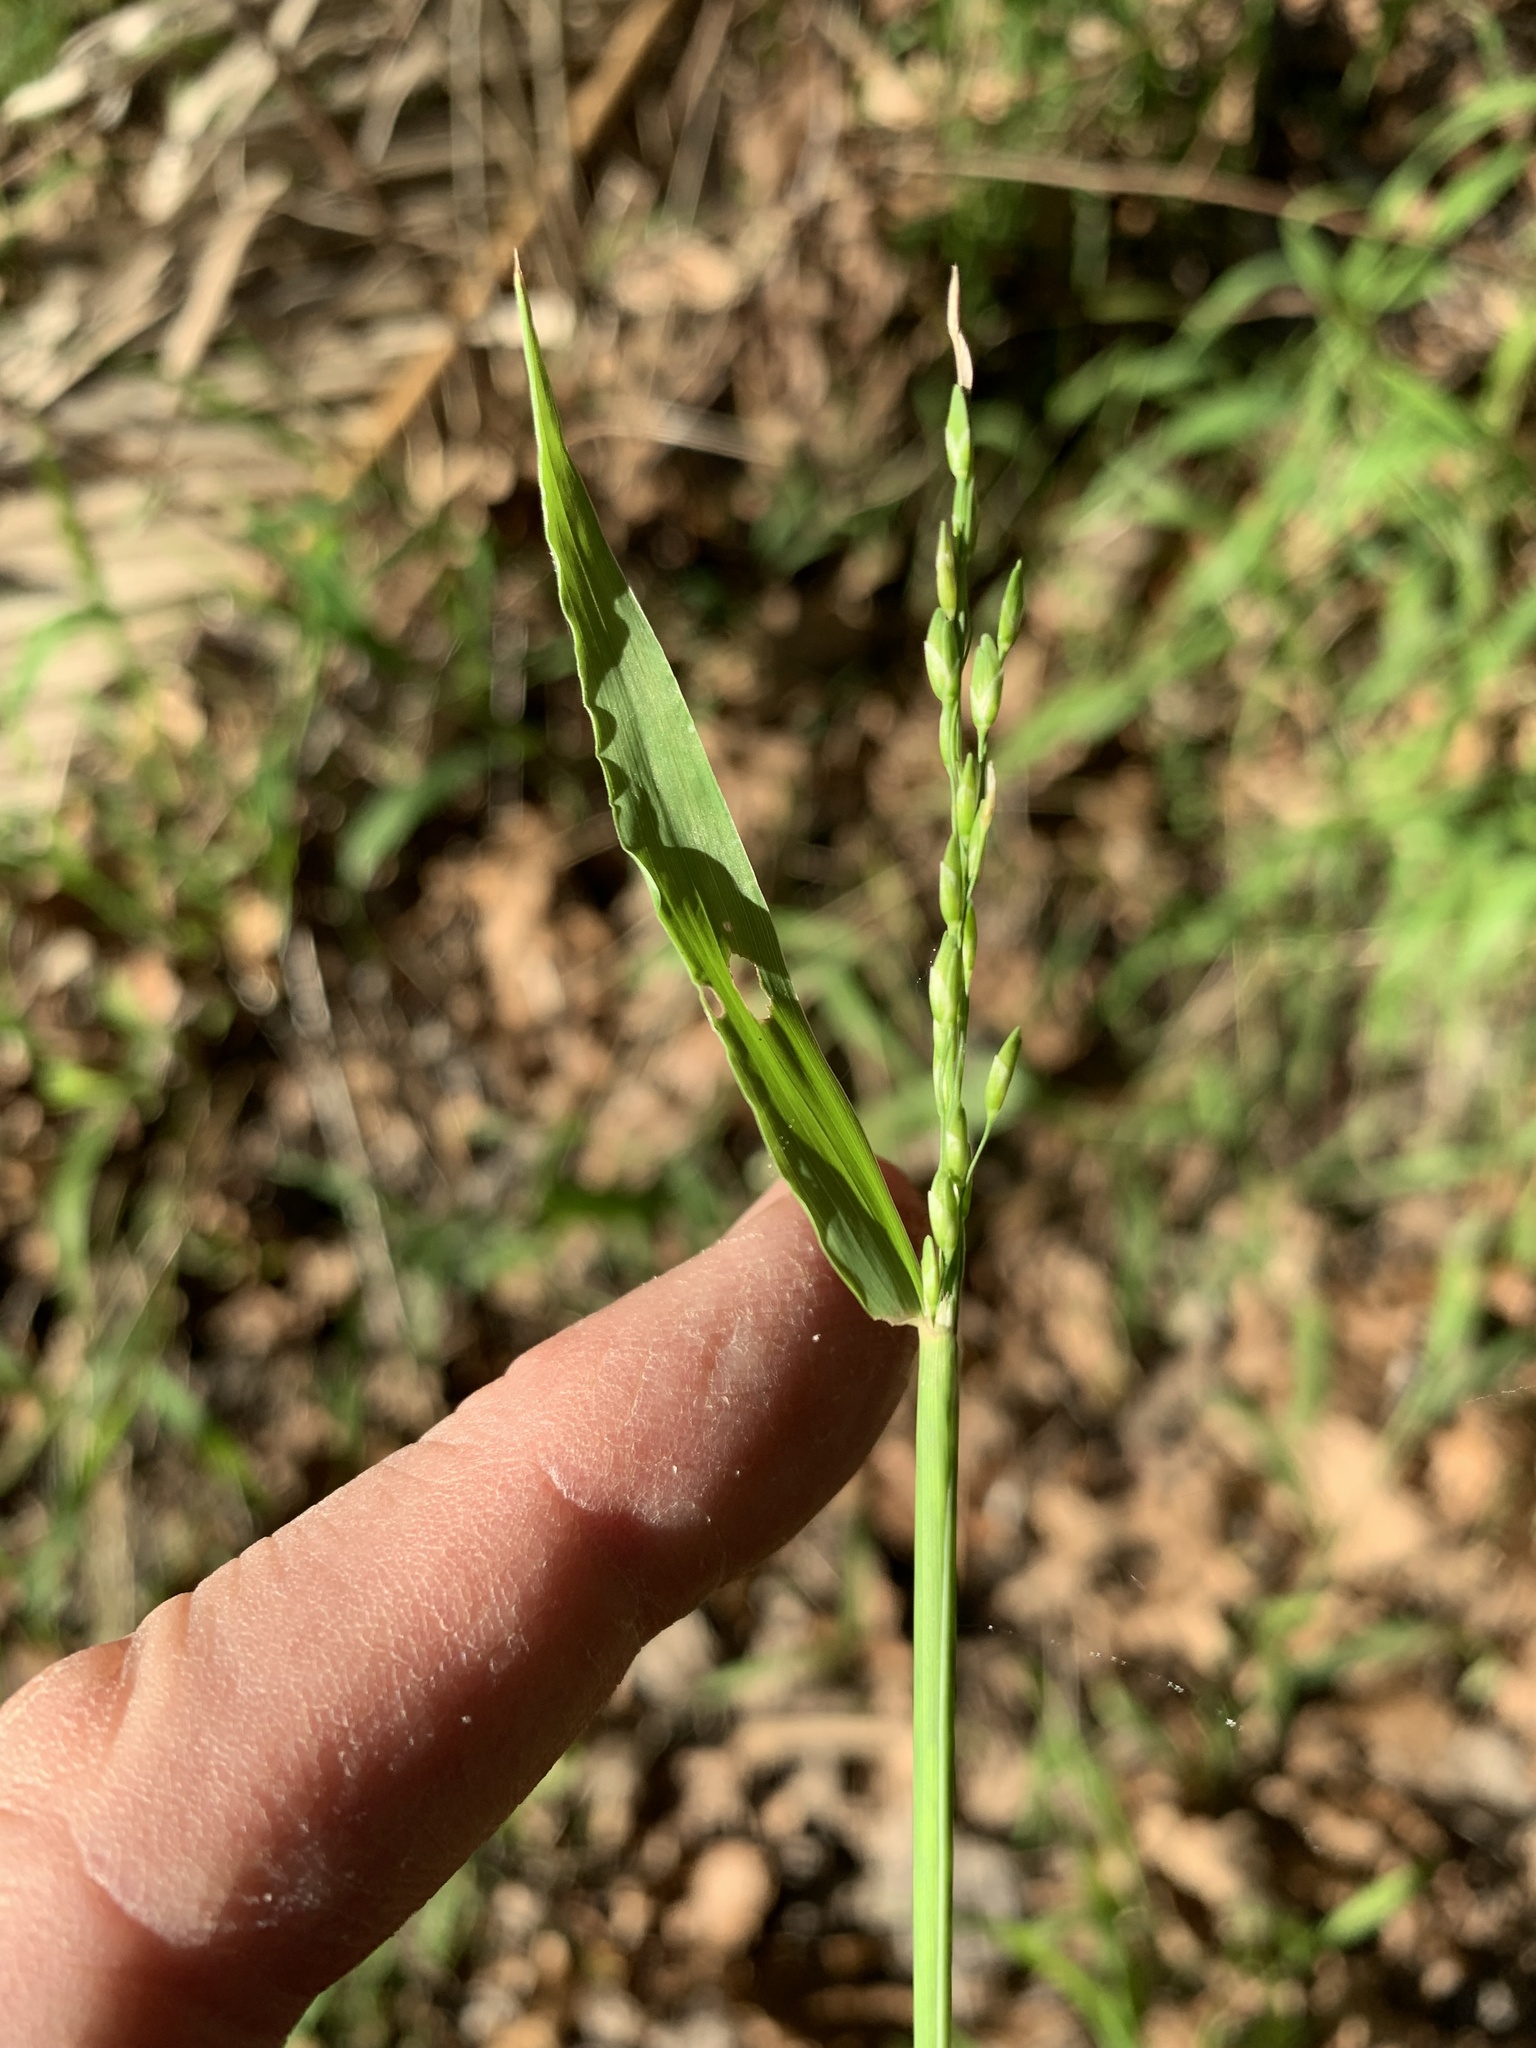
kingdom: Plantae
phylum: Tracheophyta
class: Liliopsida
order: Poales
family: Poaceae
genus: Ehrharta
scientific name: Ehrharta erecta
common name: Panic veldtgrass
